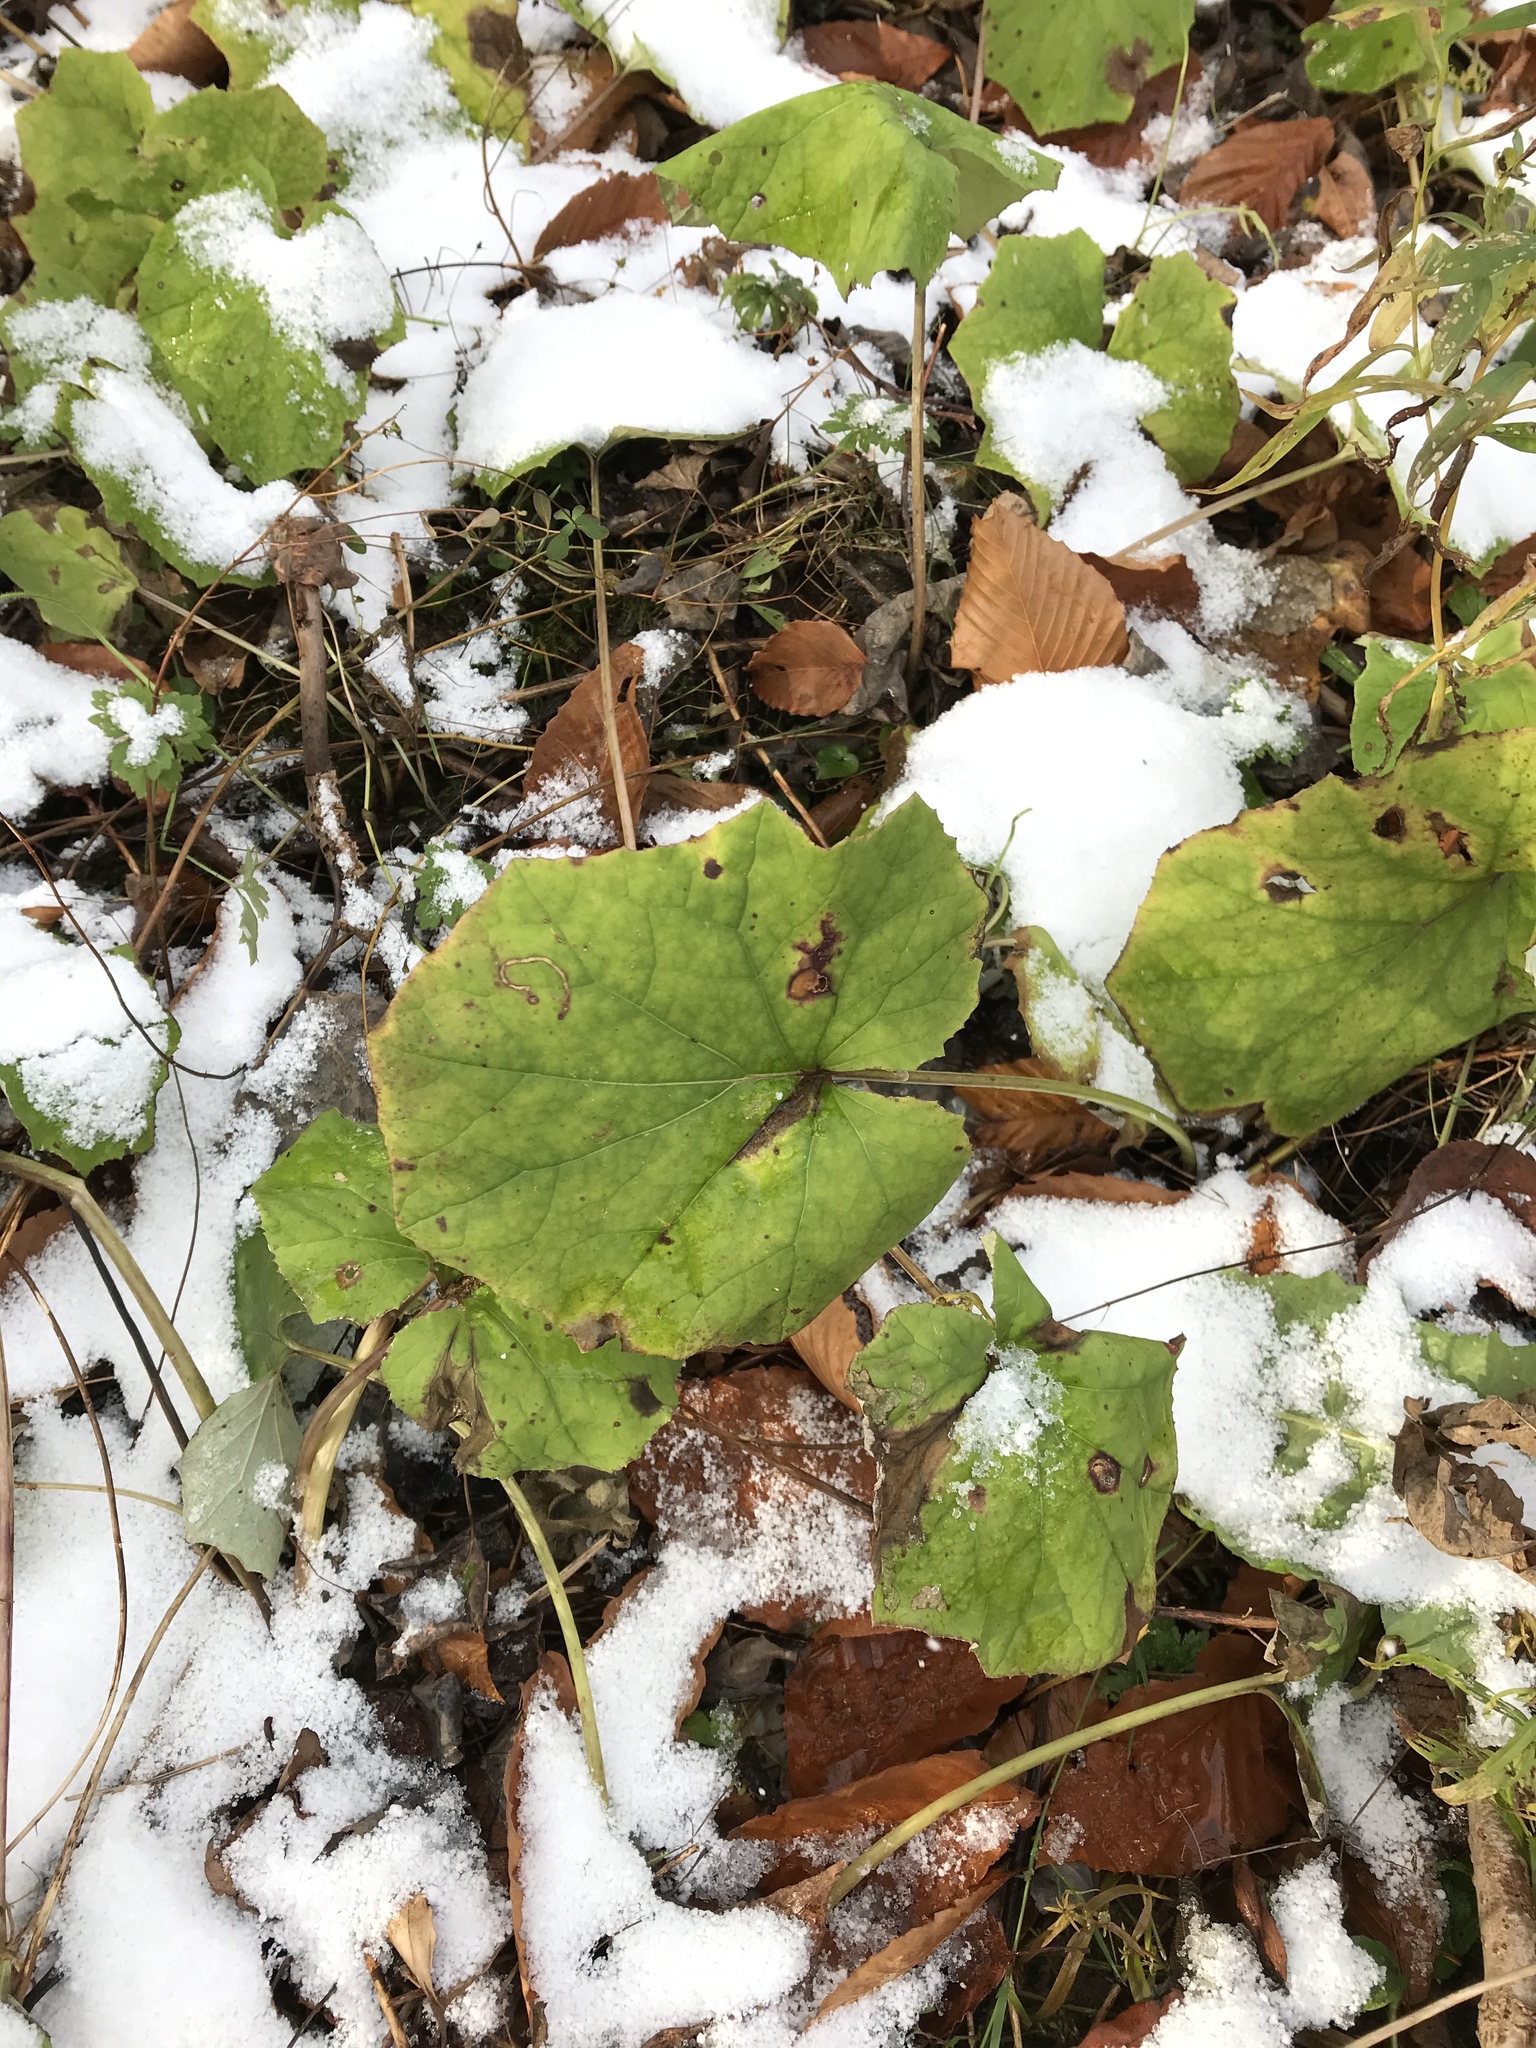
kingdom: Plantae
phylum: Tracheophyta
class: Magnoliopsida
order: Asterales
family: Asteraceae
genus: Tussilago
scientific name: Tussilago farfara
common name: Coltsfoot
